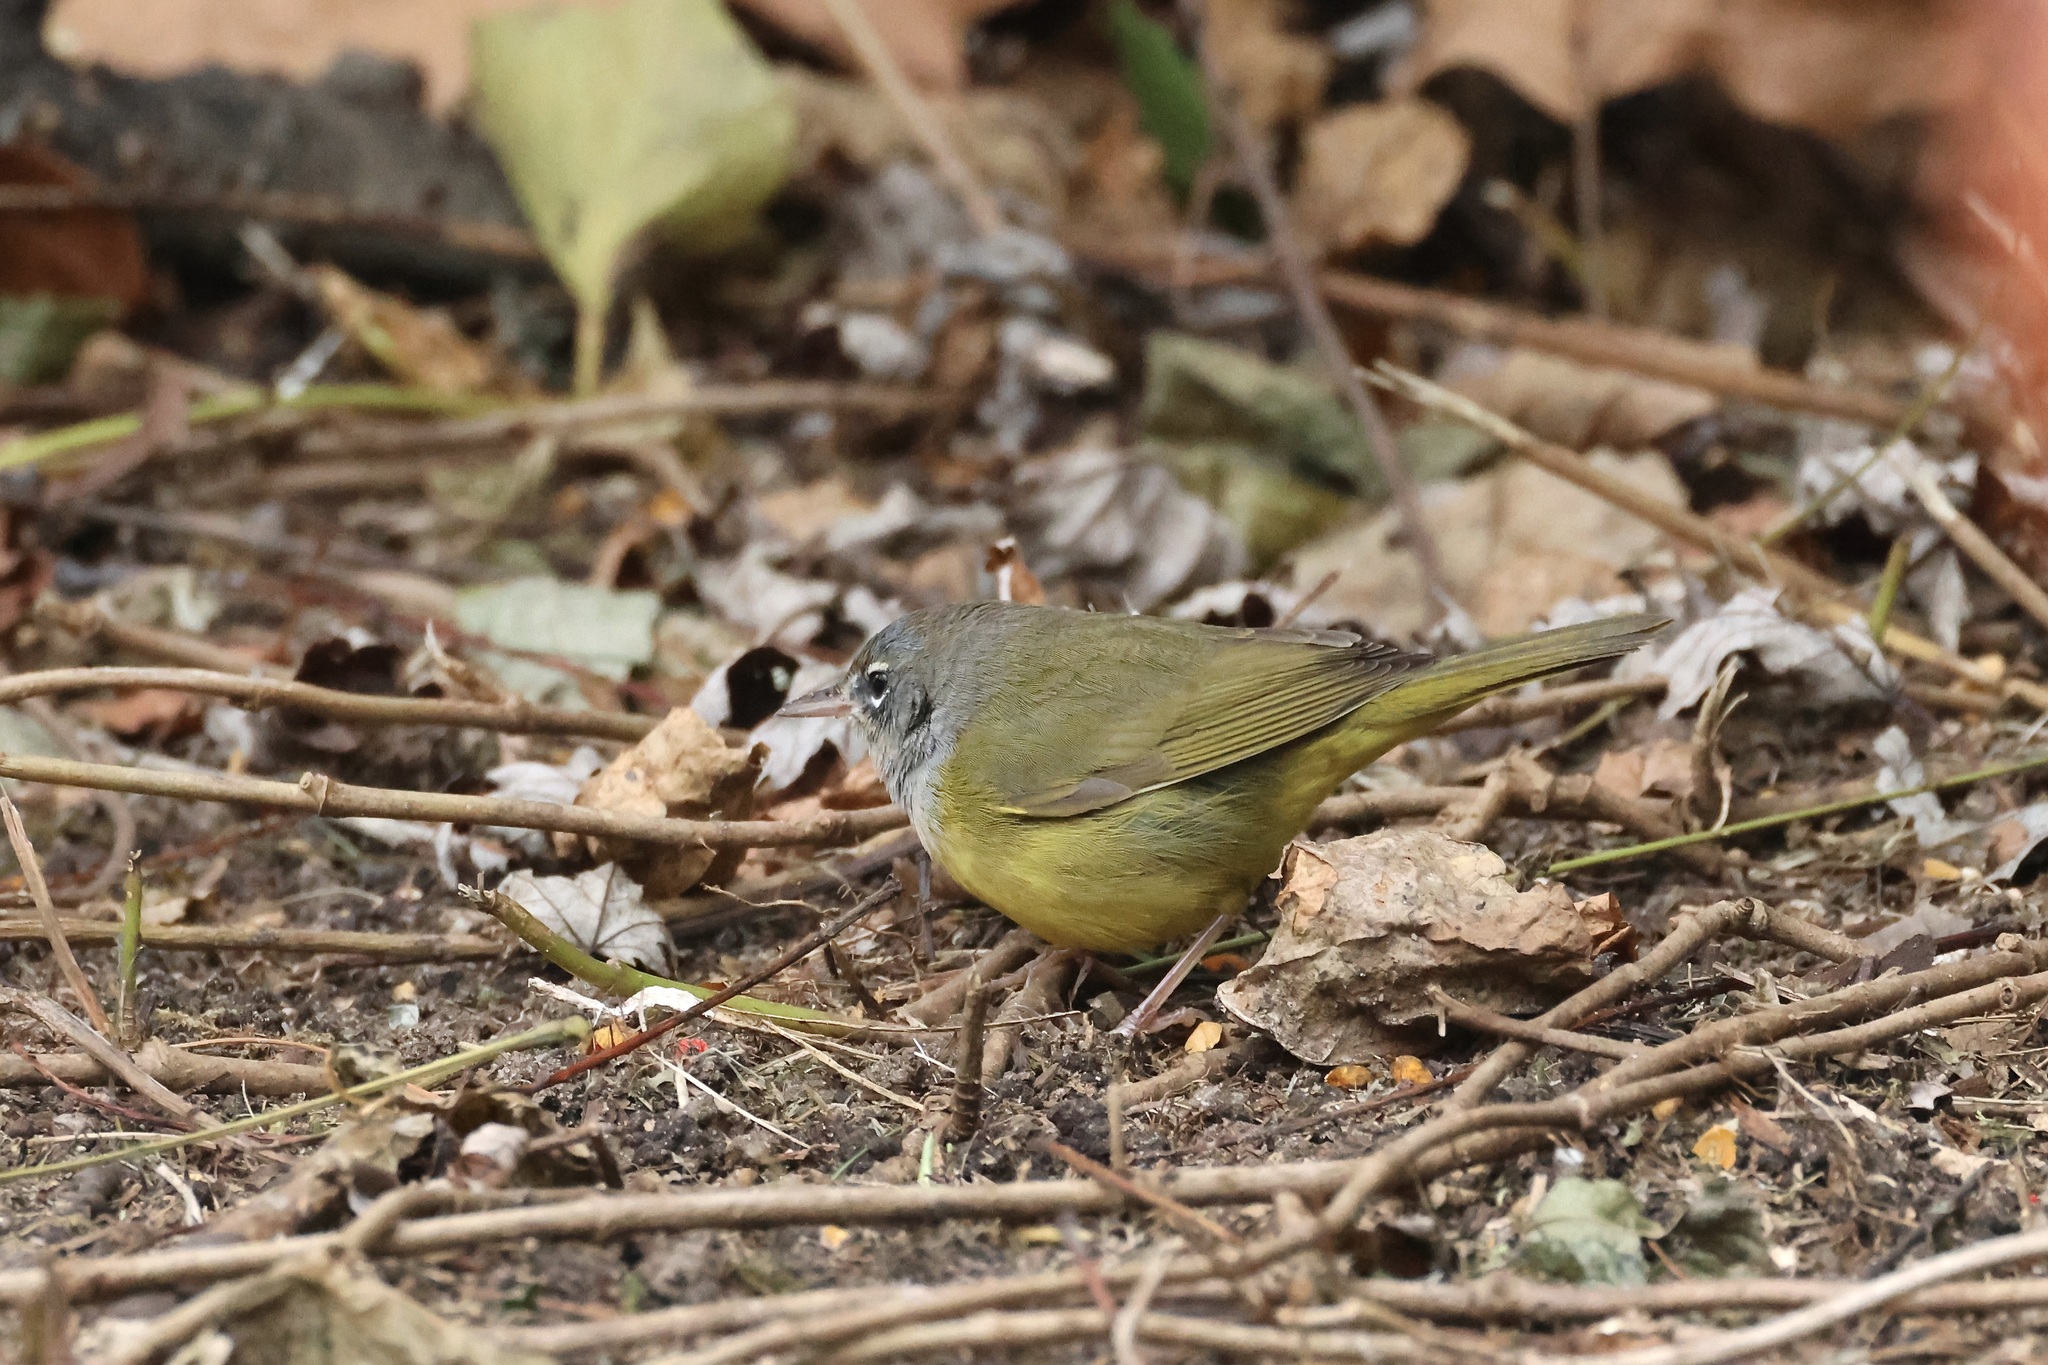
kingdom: Animalia
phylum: Chordata
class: Aves
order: Passeriformes
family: Parulidae
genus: Geothlypis
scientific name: Geothlypis tolmiei
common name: Macgillivray's warbler
